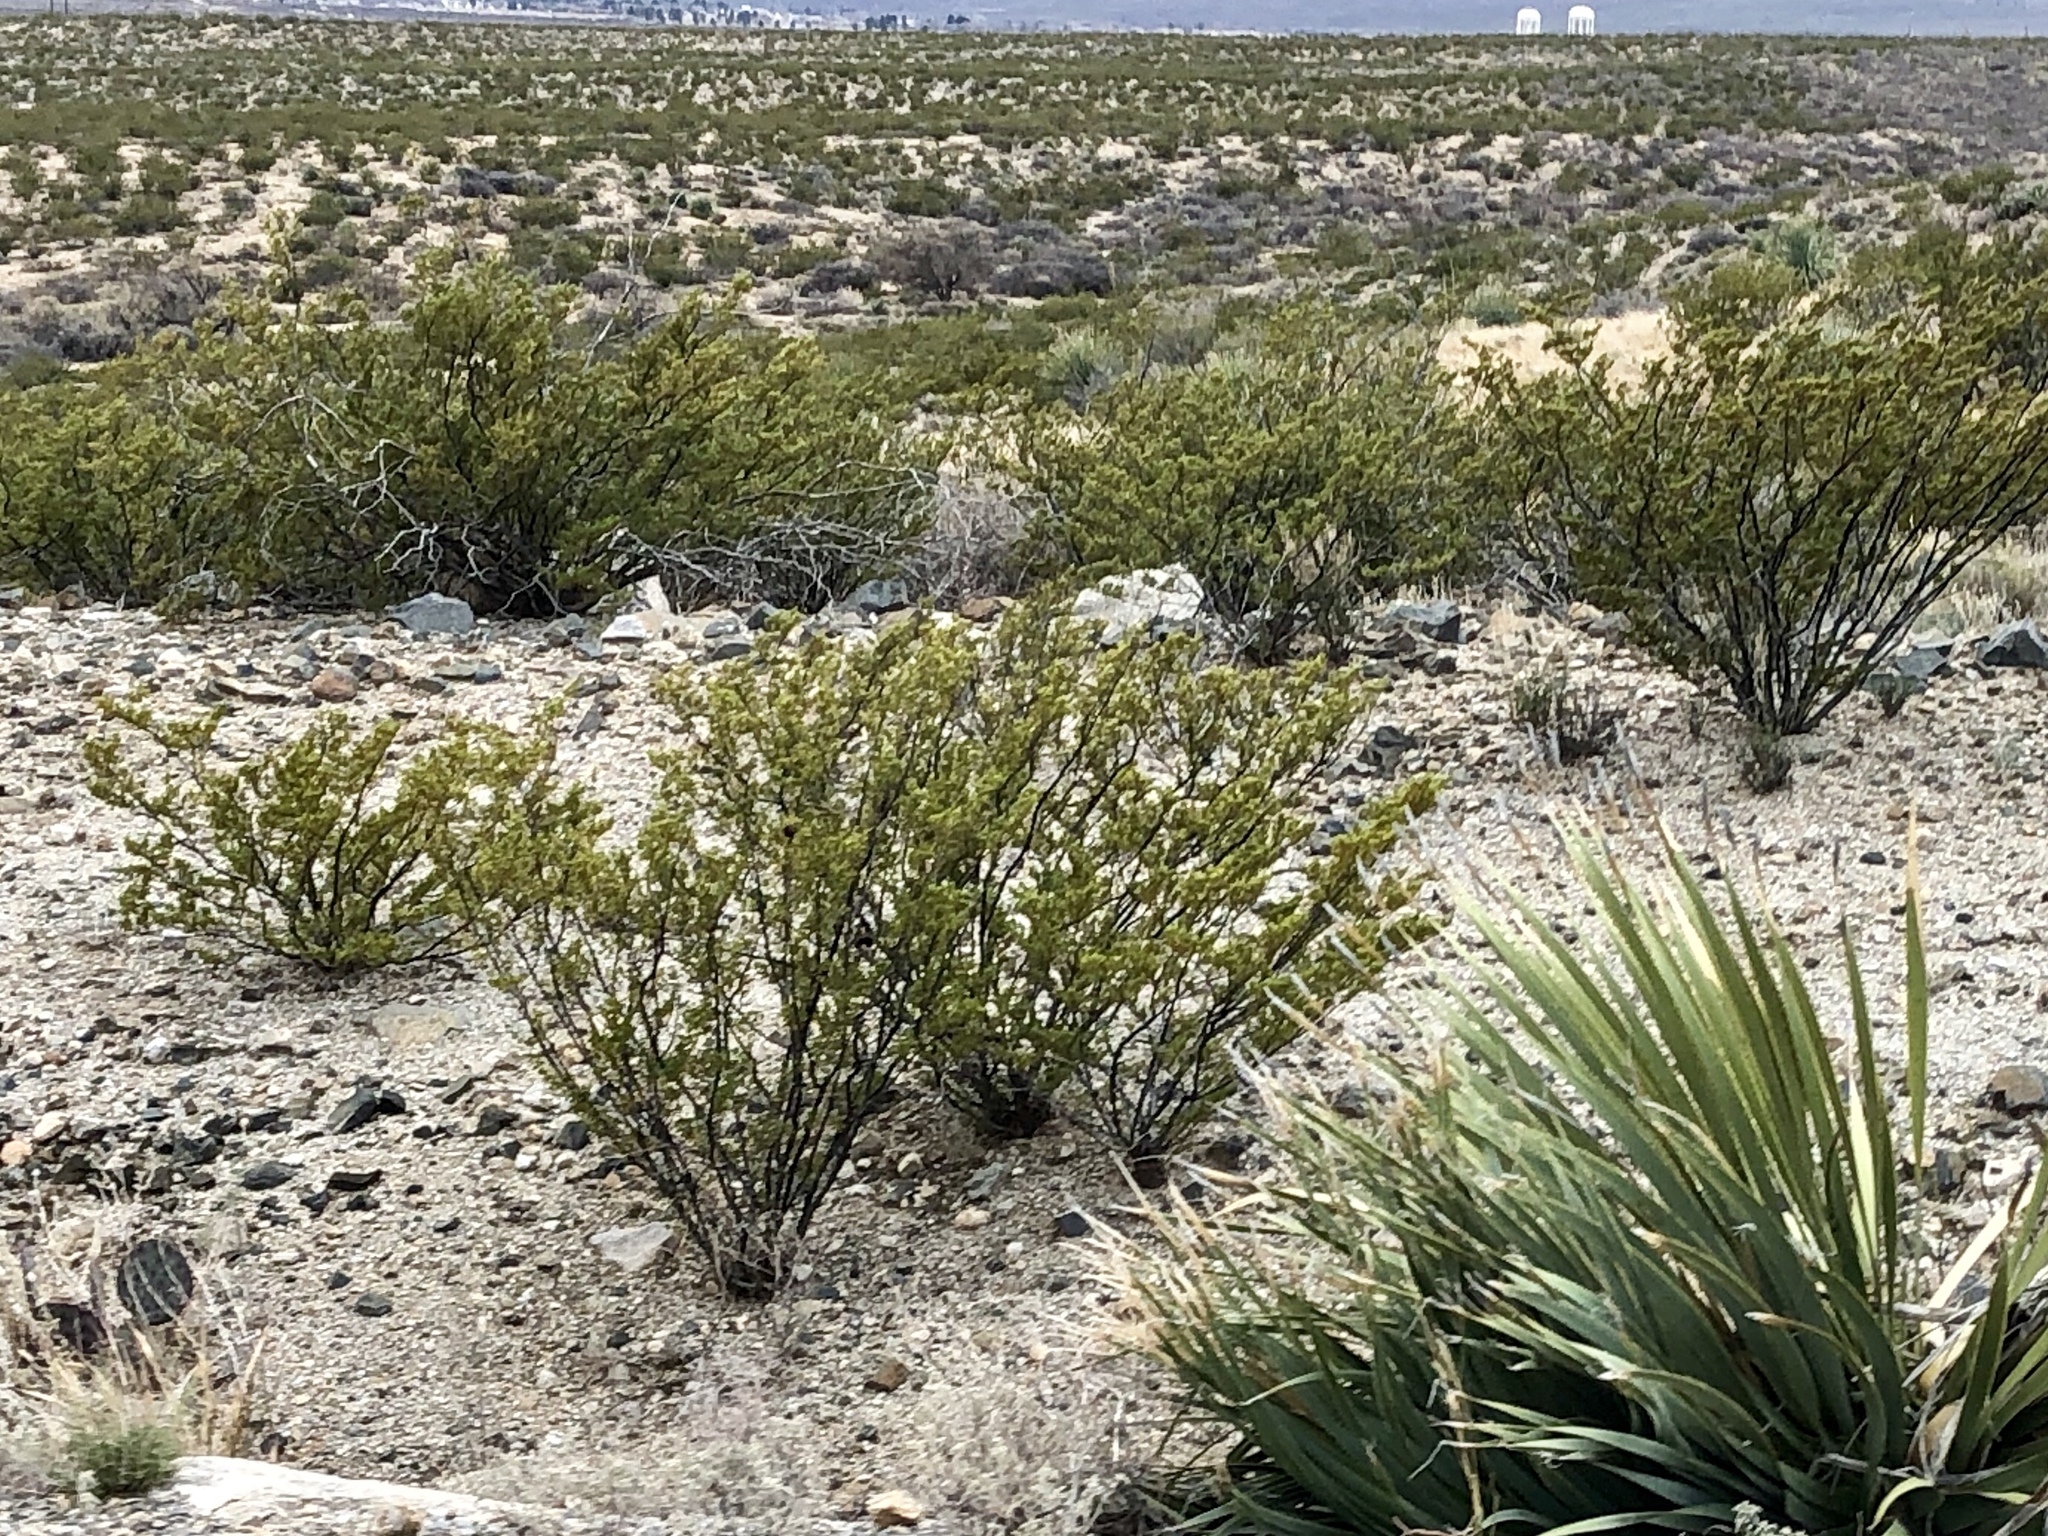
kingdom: Plantae
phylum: Tracheophyta
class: Magnoliopsida
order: Zygophyllales
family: Zygophyllaceae
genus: Larrea
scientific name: Larrea tridentata
